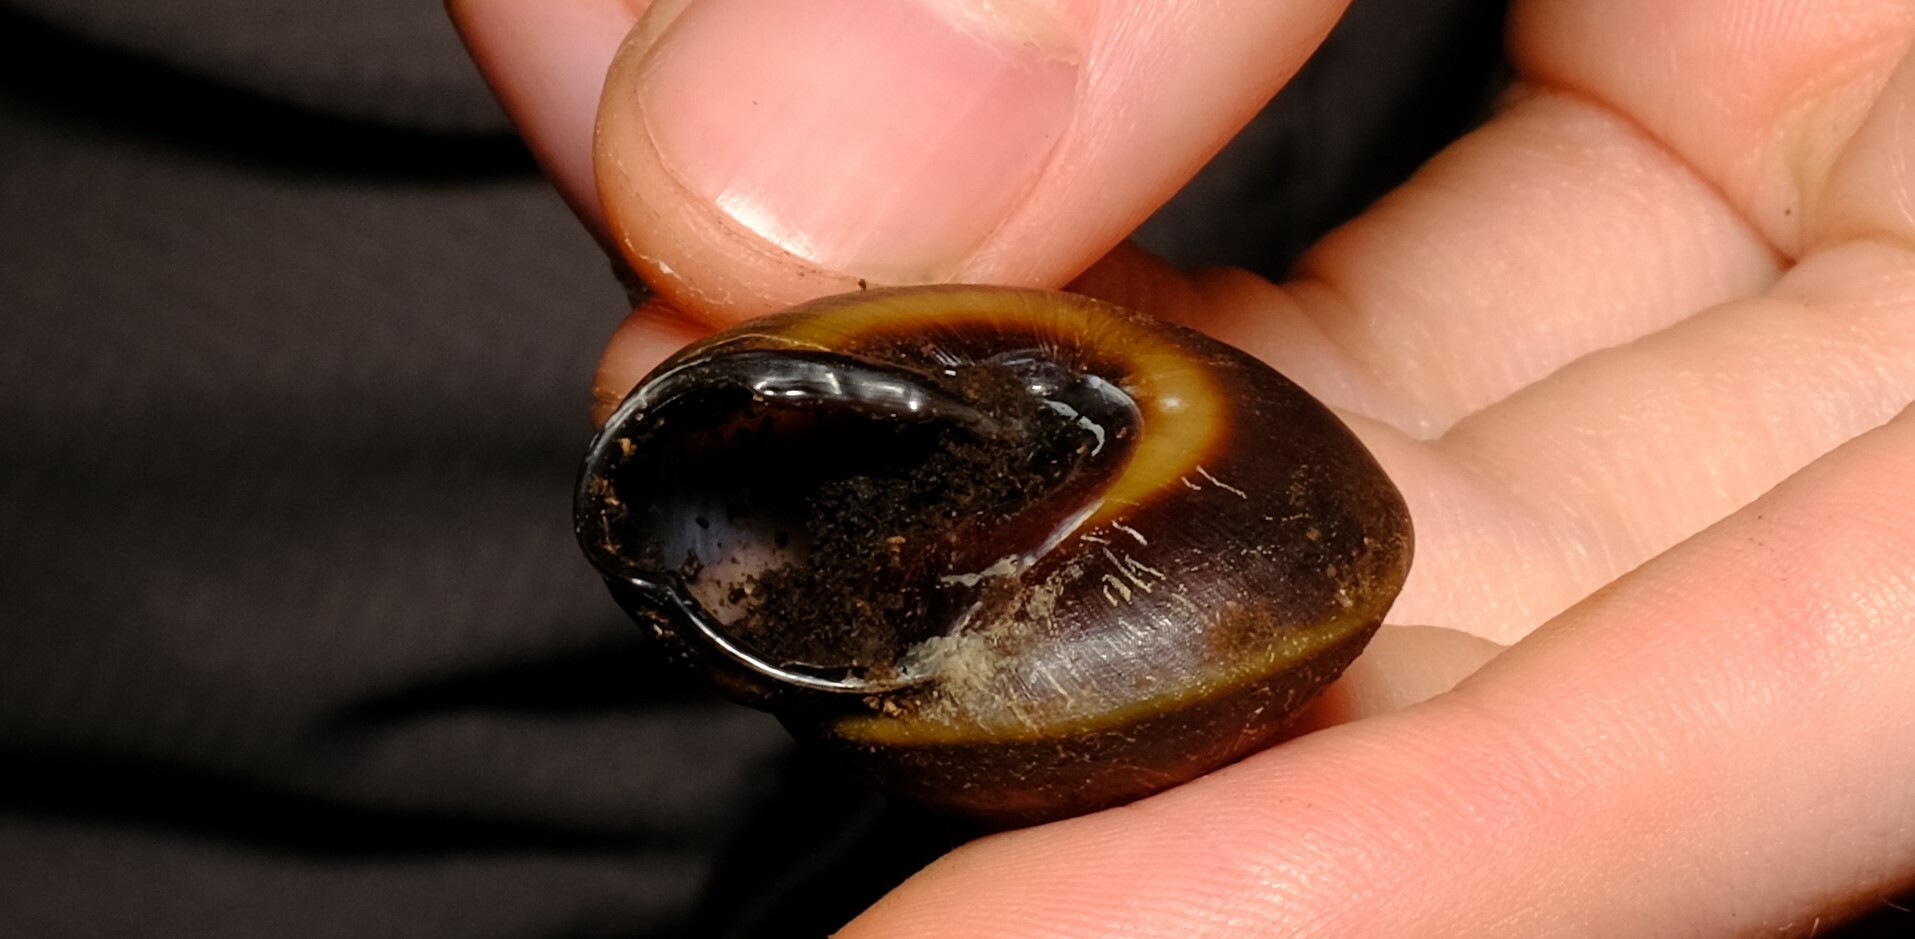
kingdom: Animalia
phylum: Mollusca
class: Gastropoda
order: Stylommatophora
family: Camaenidae
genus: Thersites
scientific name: Thersites novaehollandiae
